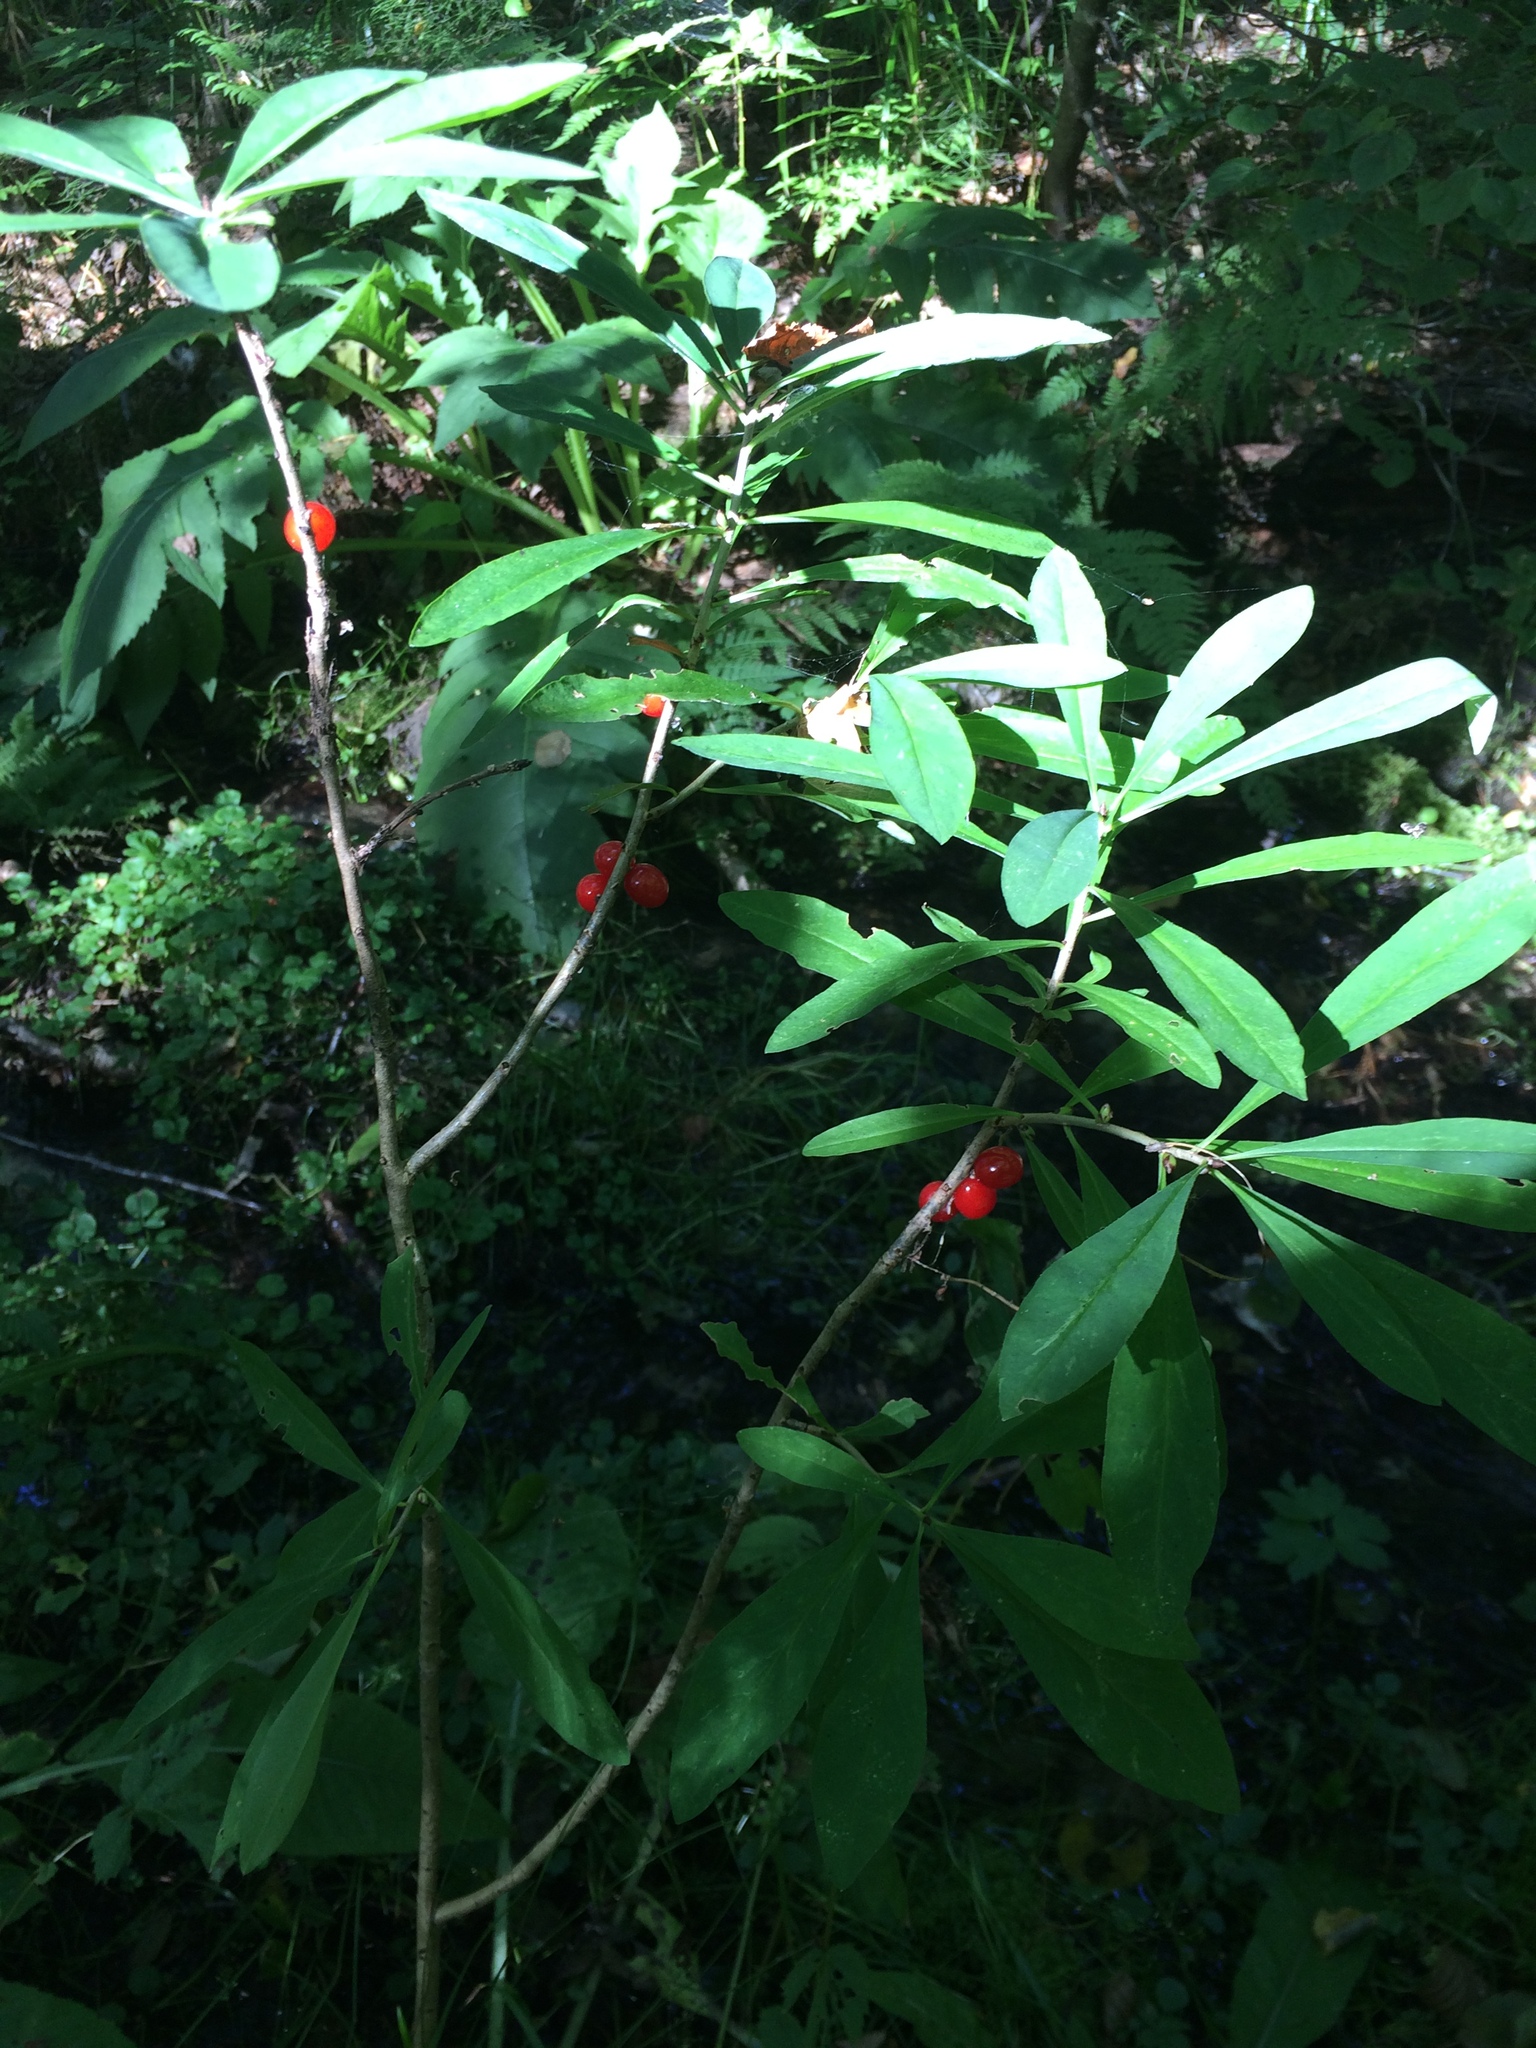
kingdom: Plantae
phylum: Tracheophyta
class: Magnoliopsida
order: Malvales
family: Thymelaeaceae
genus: Daphne
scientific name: Daphne mezereum
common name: Mezereon
